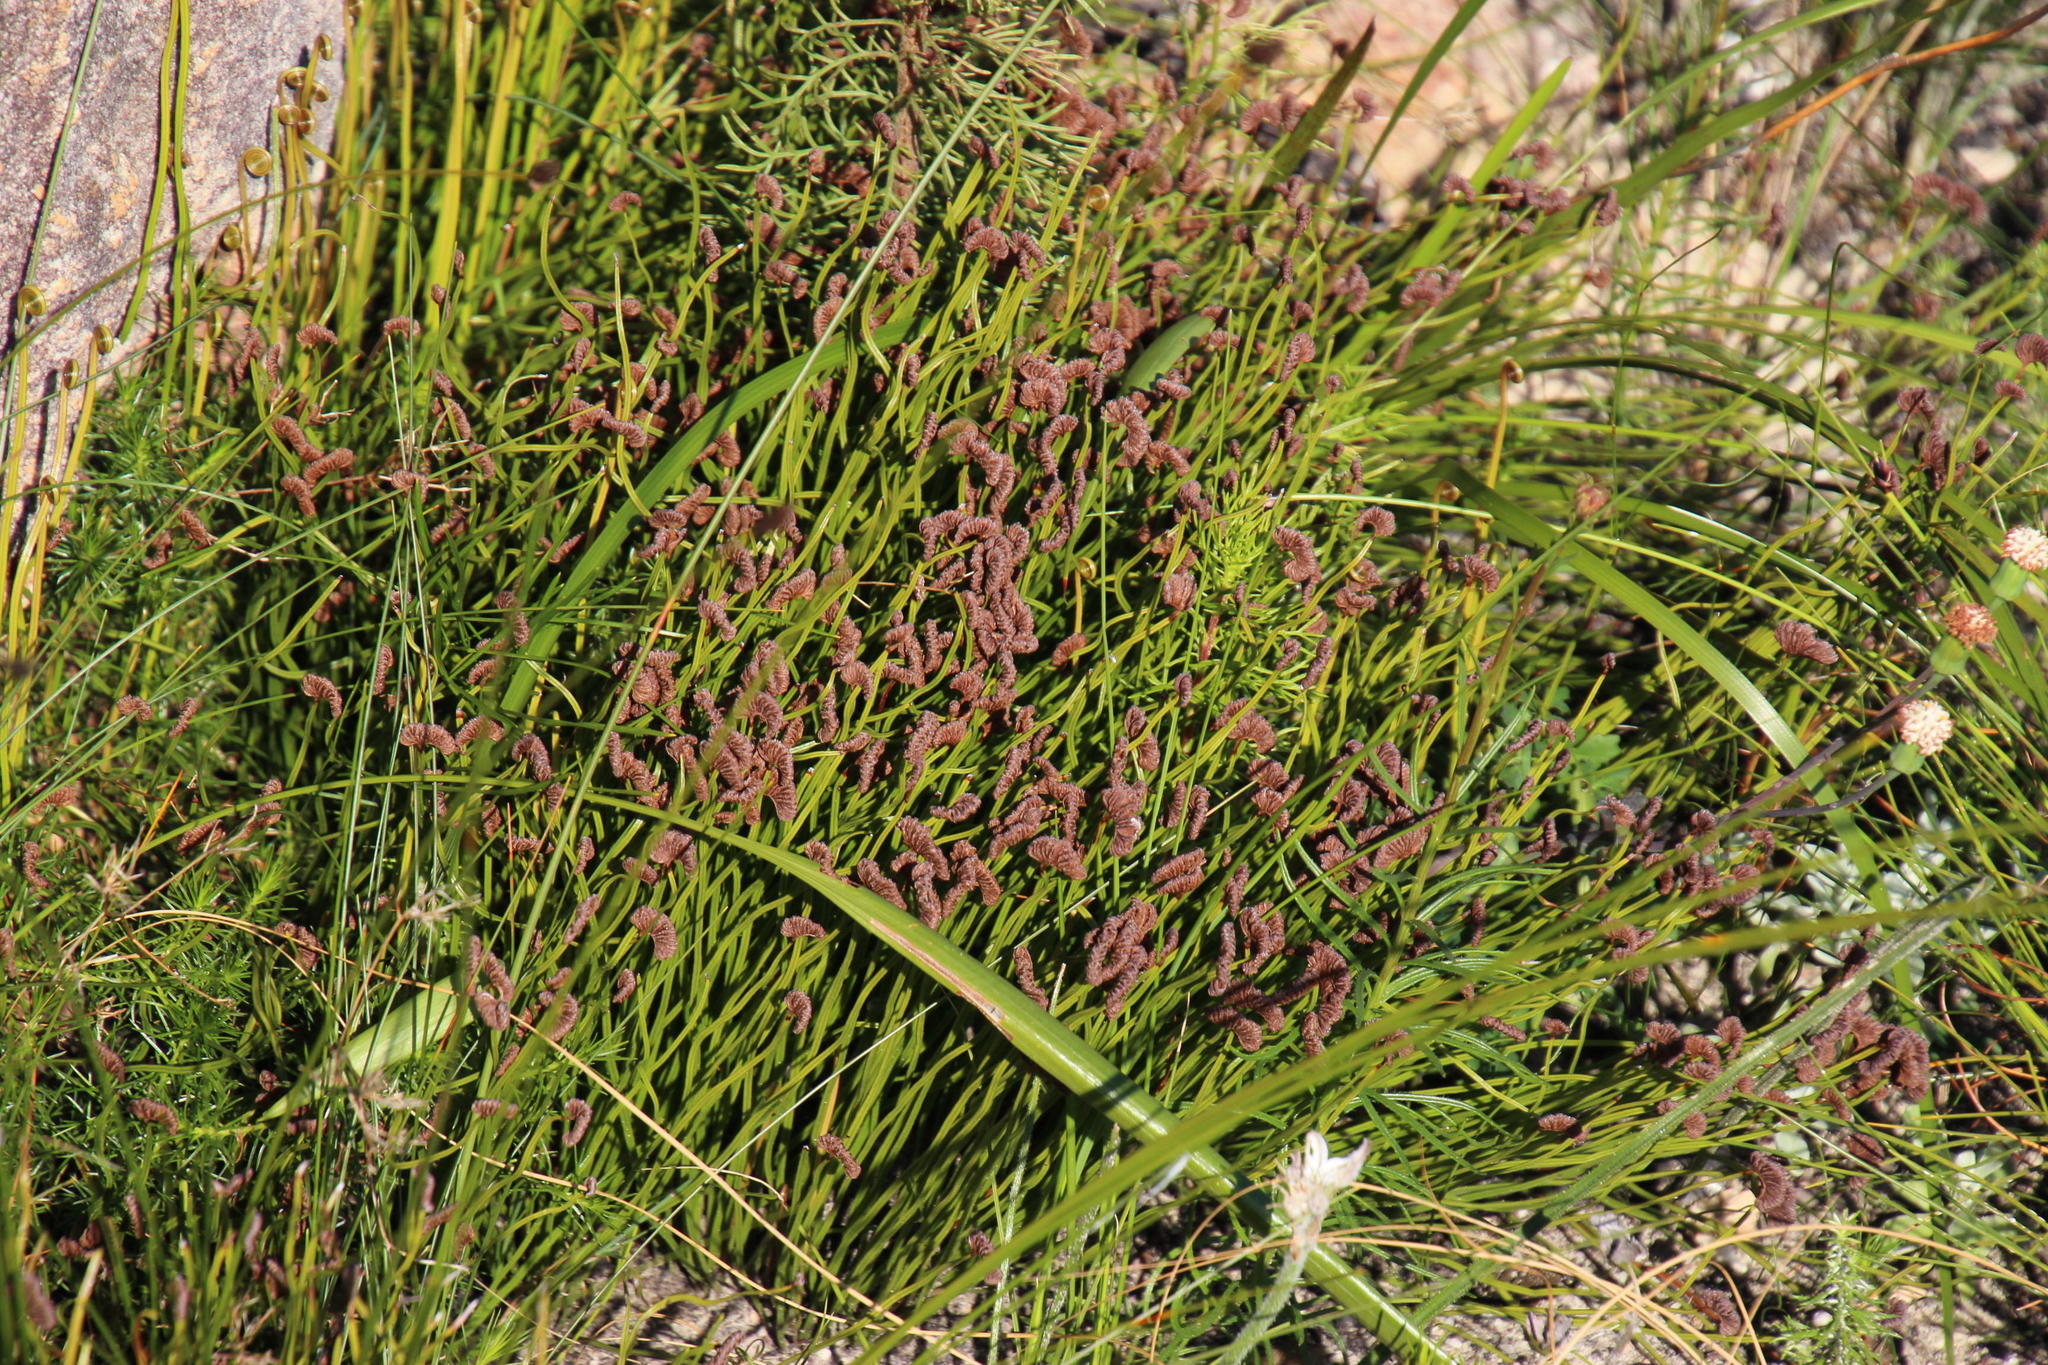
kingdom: Plantae
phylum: Tracheophyta
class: Polypodiopsida
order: Schizaeales
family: Schizaeaceae
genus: Schizaea
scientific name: Schizaea pectinata
